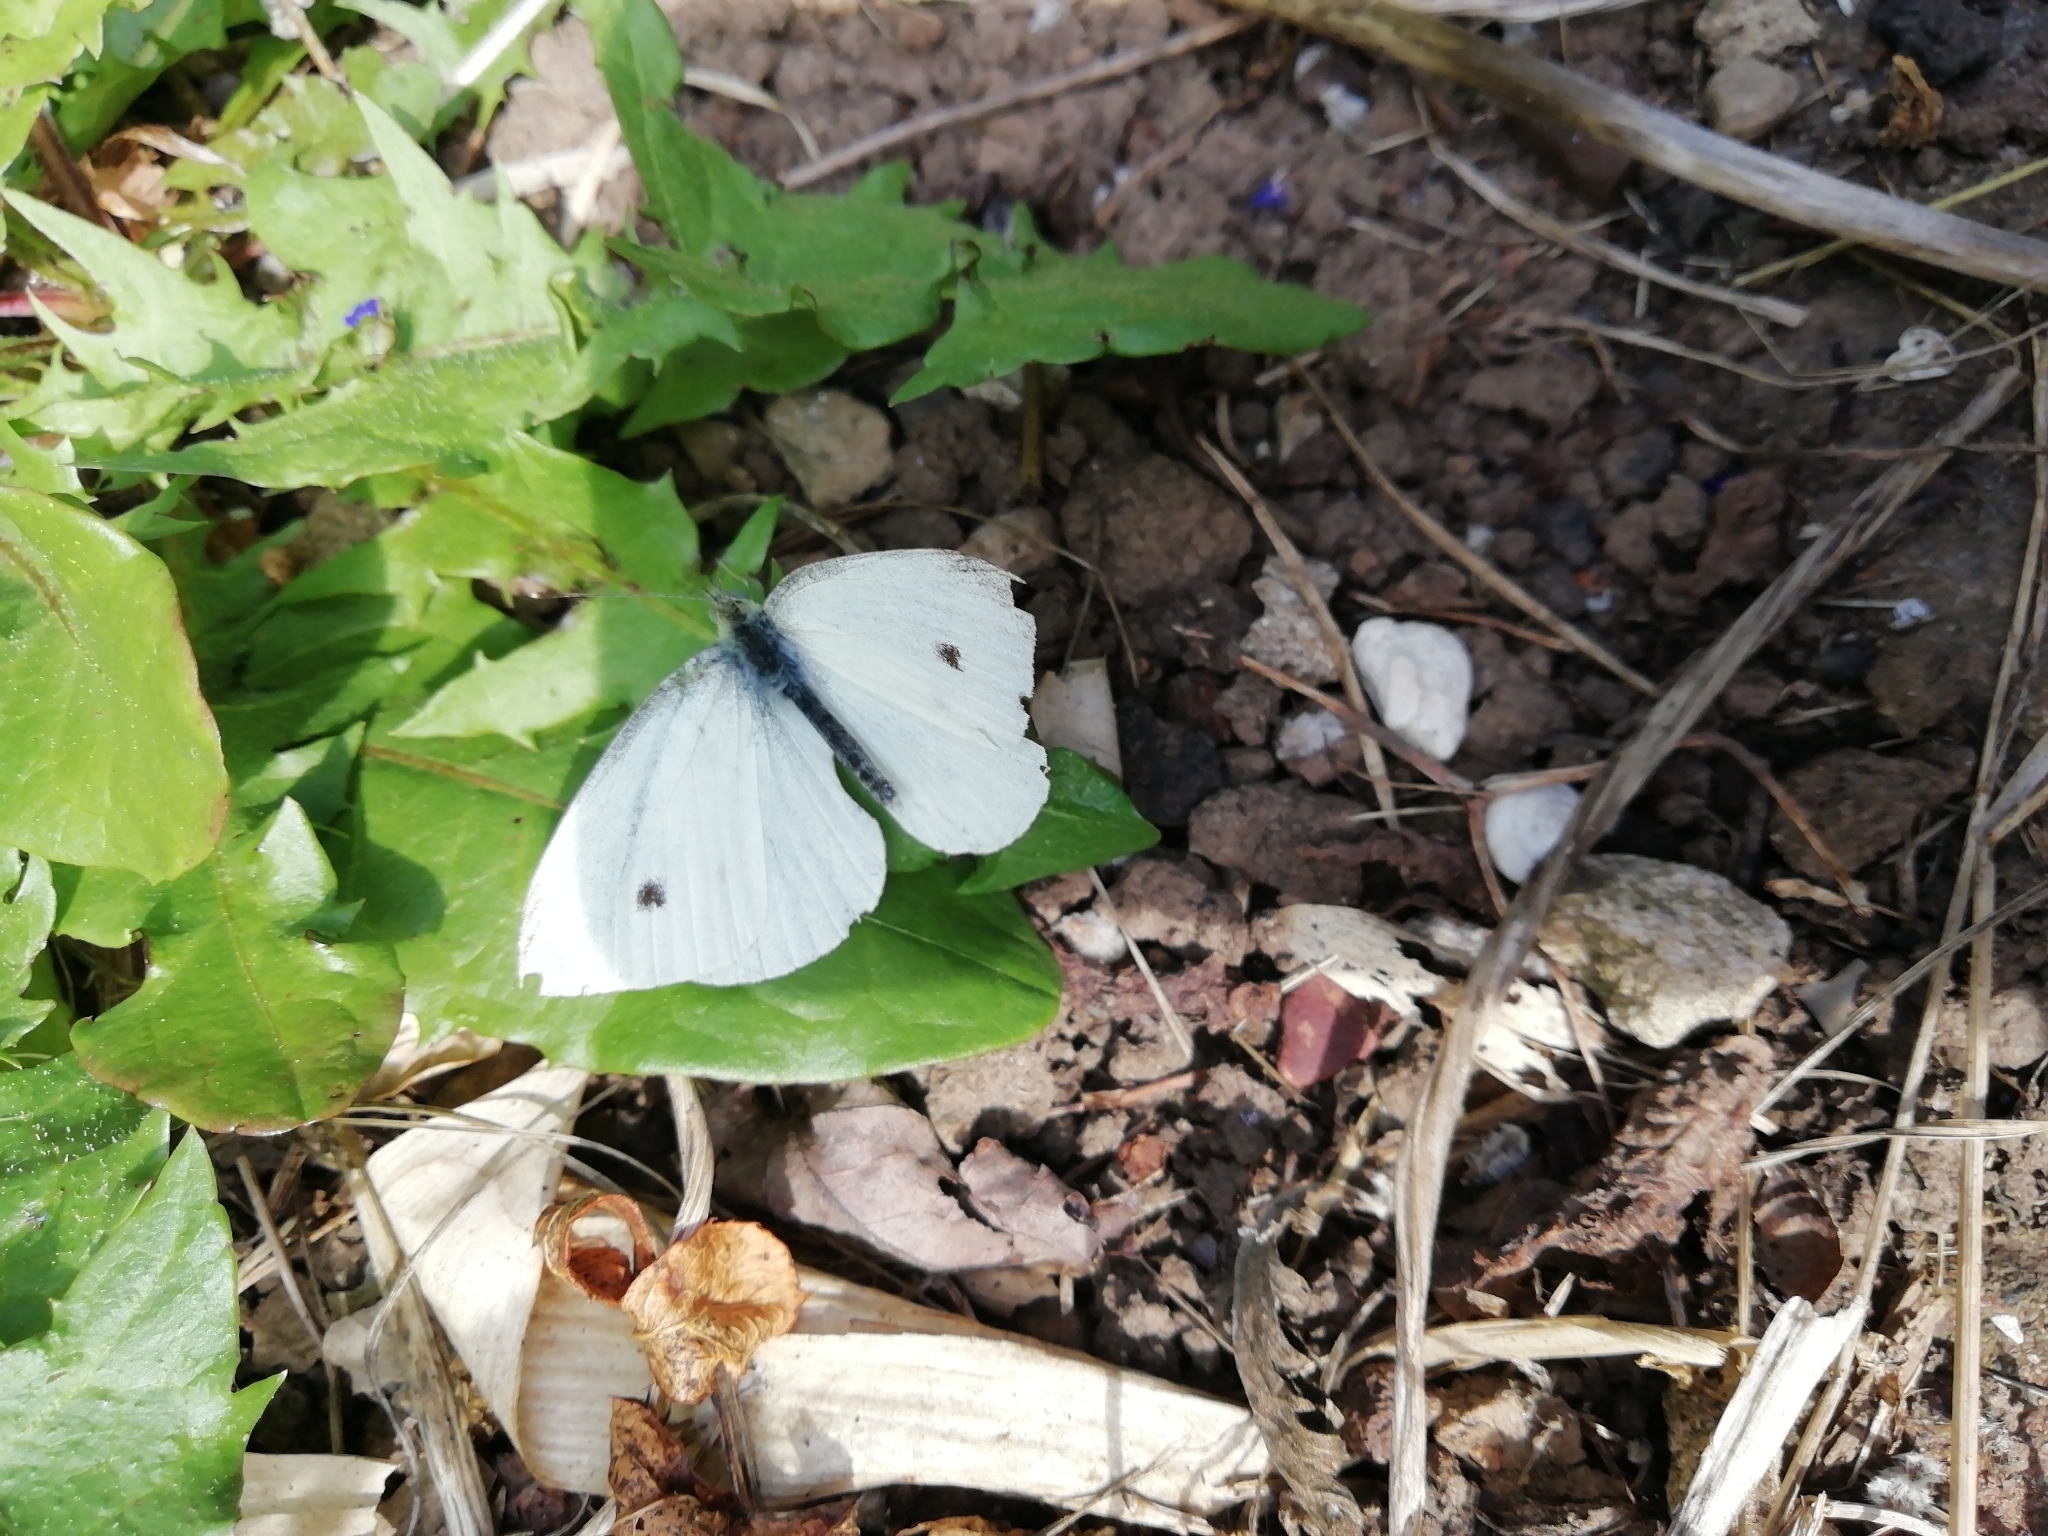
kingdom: Animalia
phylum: Arthropoda
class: Insecta
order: Lepidoptera
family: Pieridae
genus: Pieris
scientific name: Pieris rapae
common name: Small white
